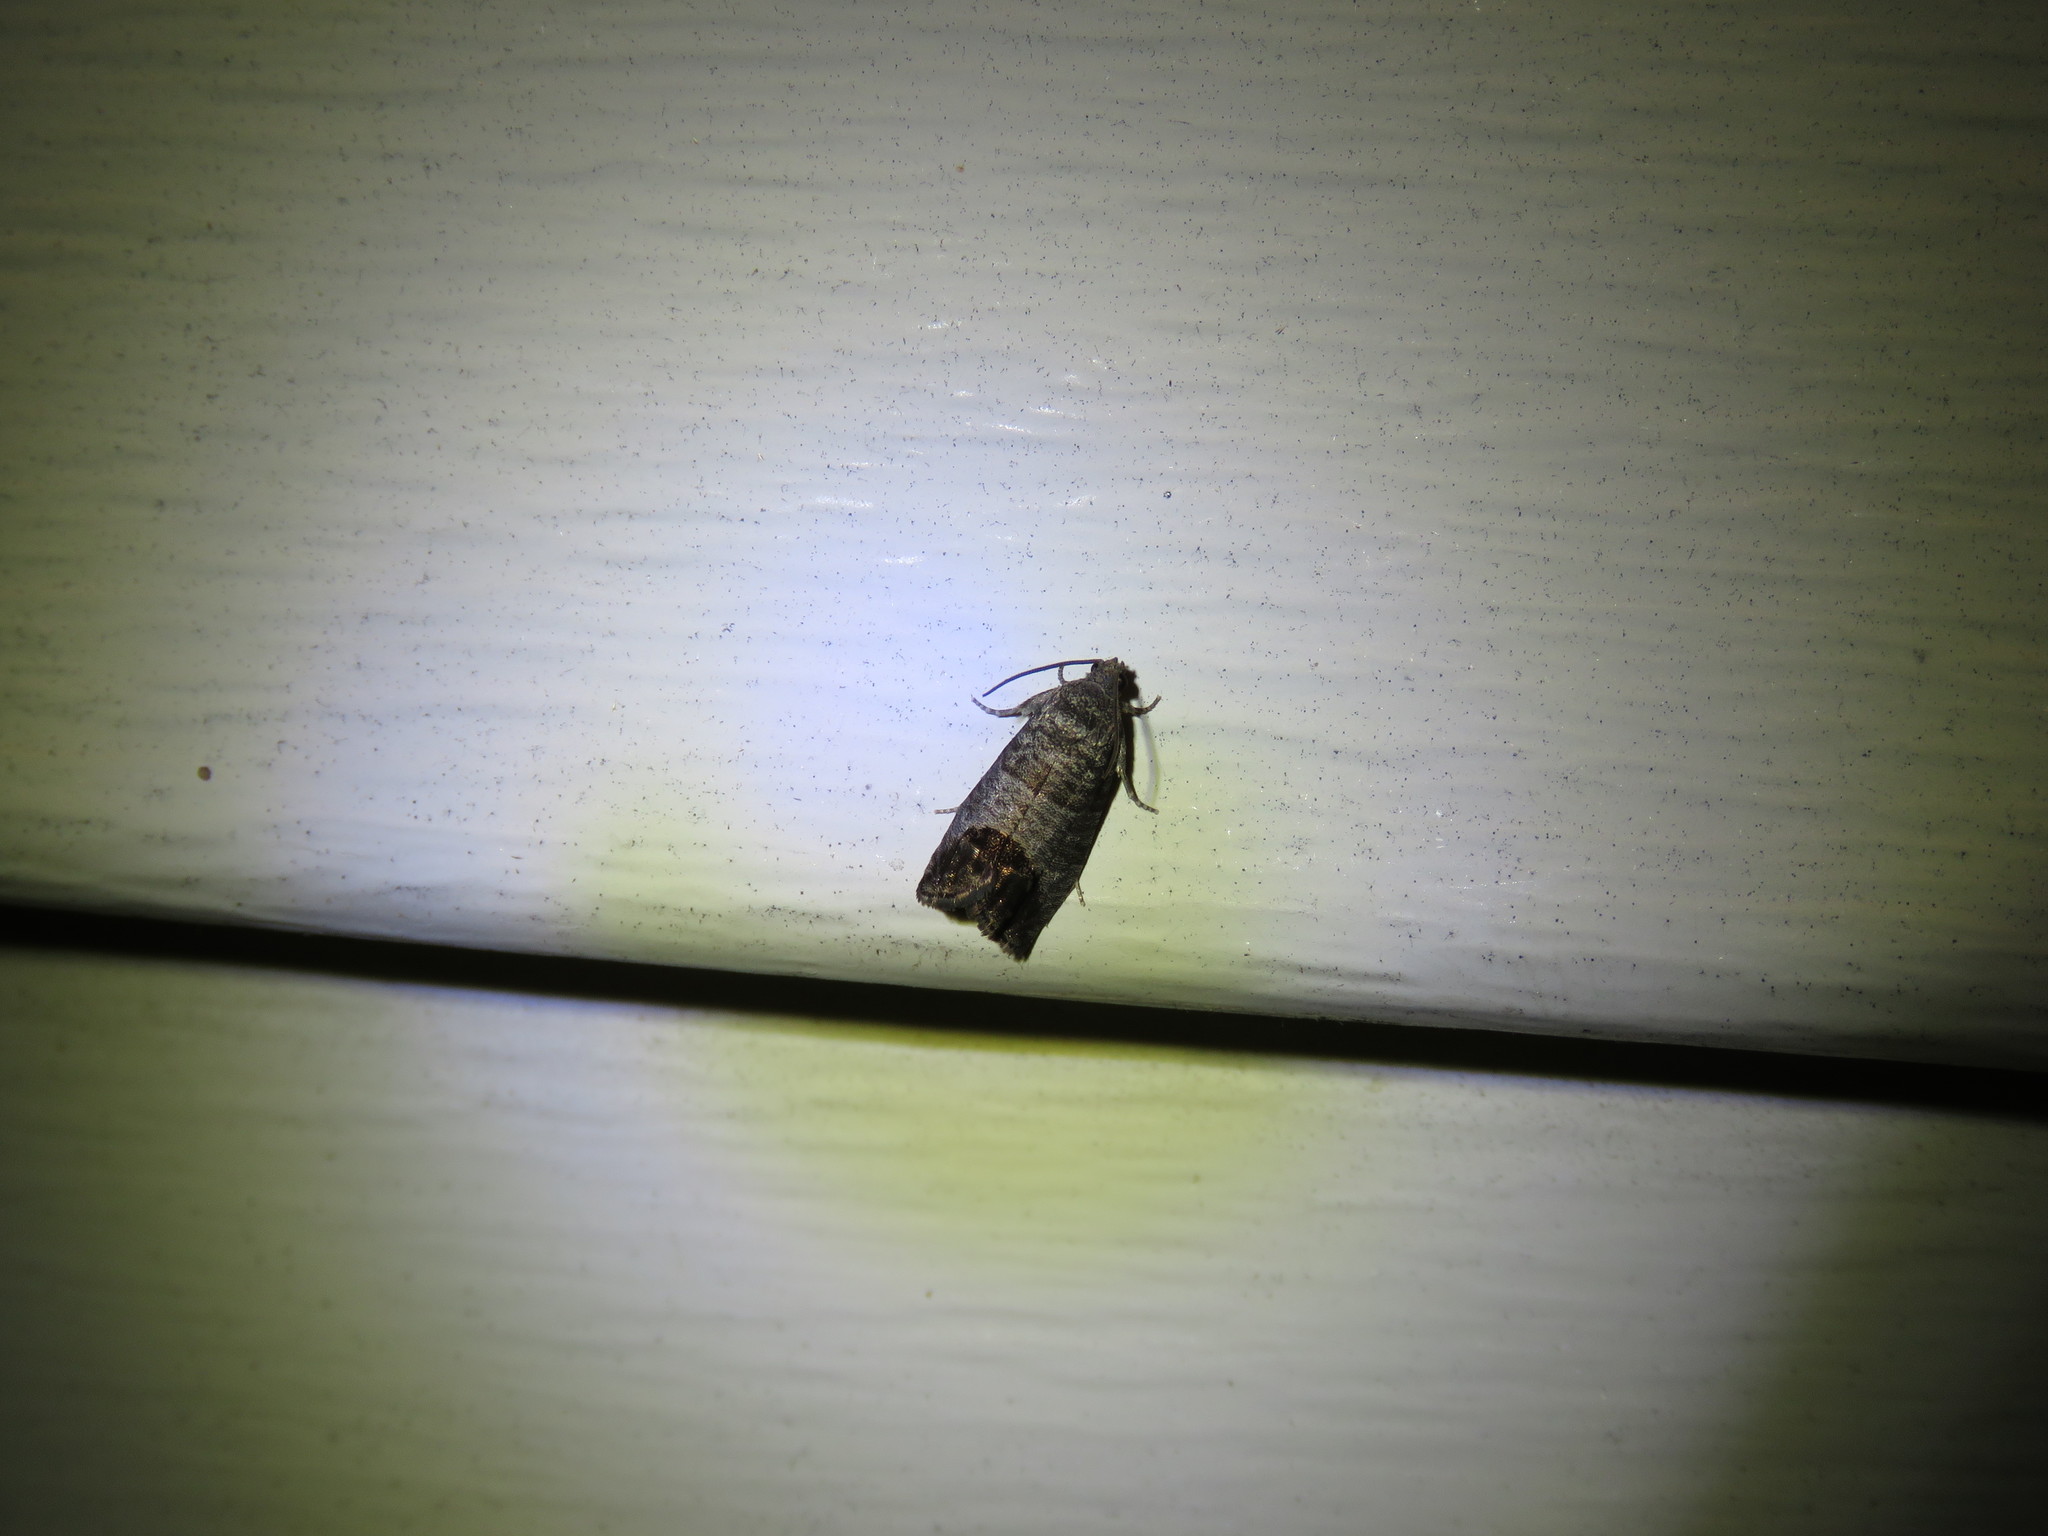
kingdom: Animalia
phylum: Arthropoda
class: Insecta
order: Lepidoptera
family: Tortricidae
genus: Cydia
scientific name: Cydia pomonella
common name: Codling moth
